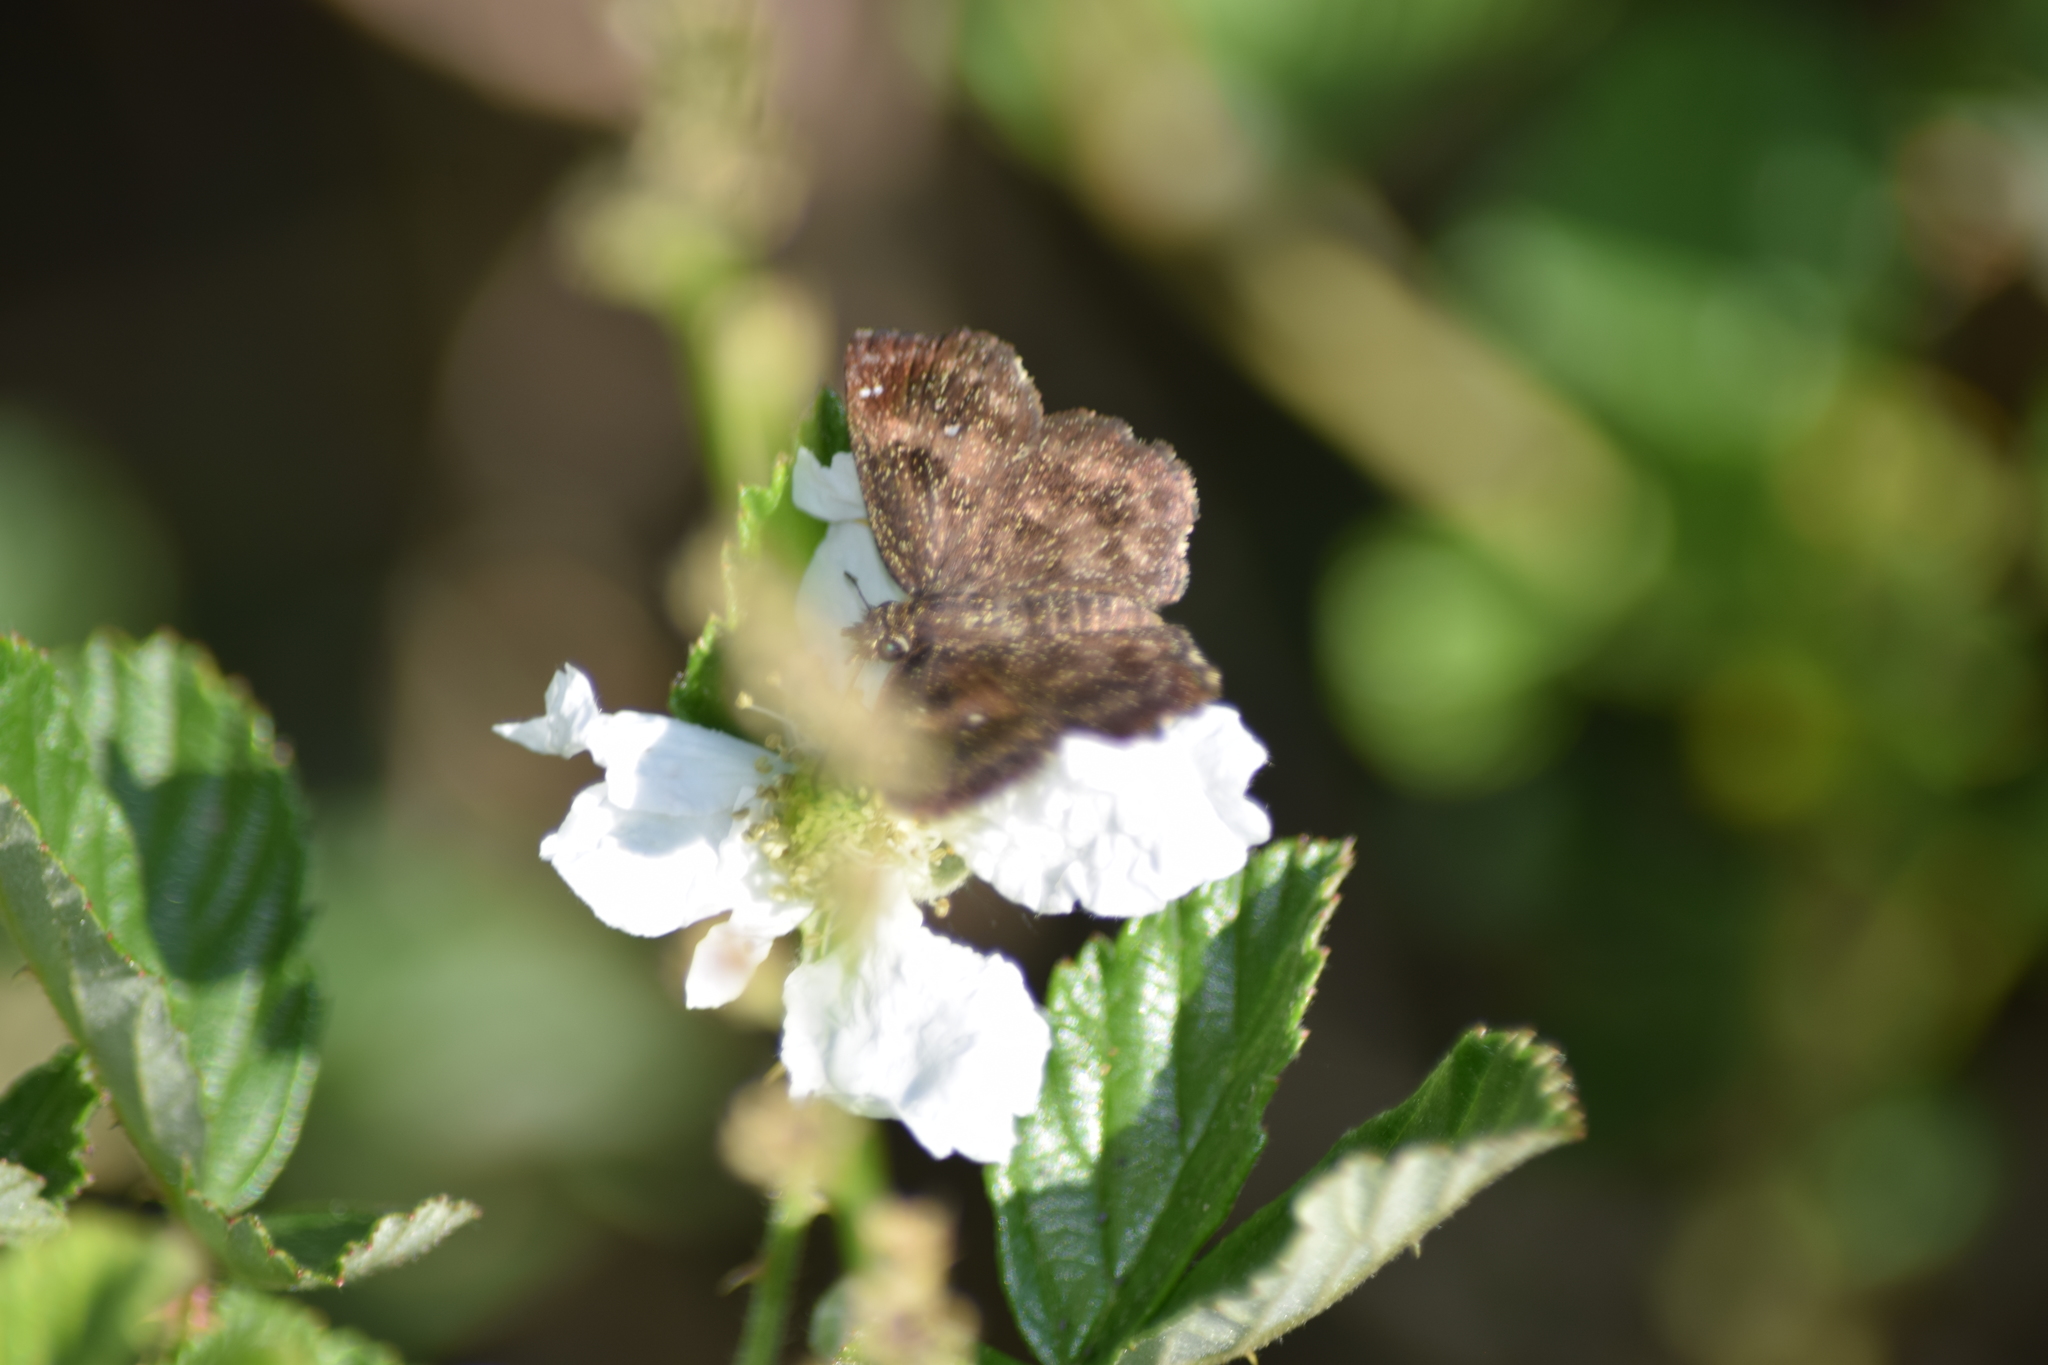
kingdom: Animalia
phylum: Arthropoda
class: Insecta
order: Lepidoptera
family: Hesperiidae
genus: Staphylus
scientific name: Staphylus mazans
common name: Mazans scallopwing
